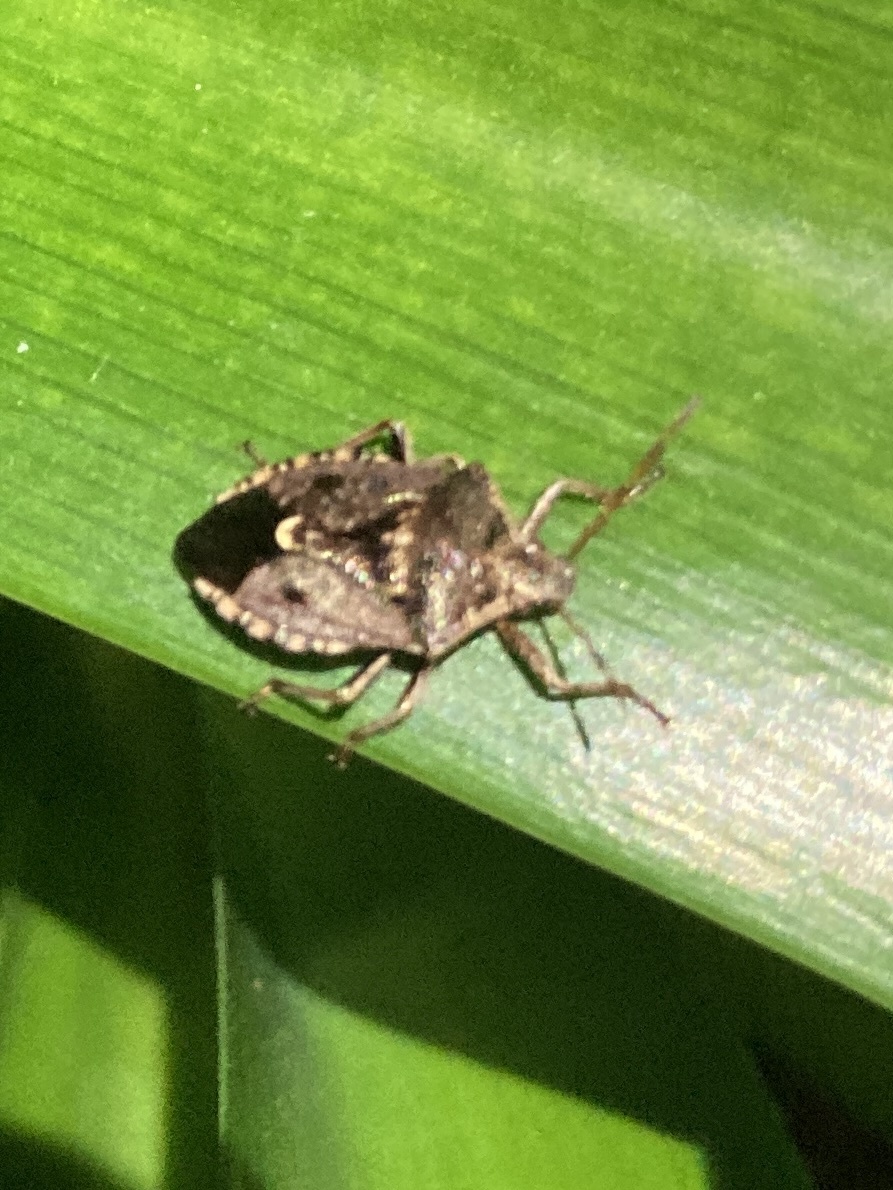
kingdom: Animalia
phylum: Arthropoda
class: Insecta
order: Hemiptera
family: Pentatomidae
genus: Cermatulus
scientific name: Cermatulus nasalis
